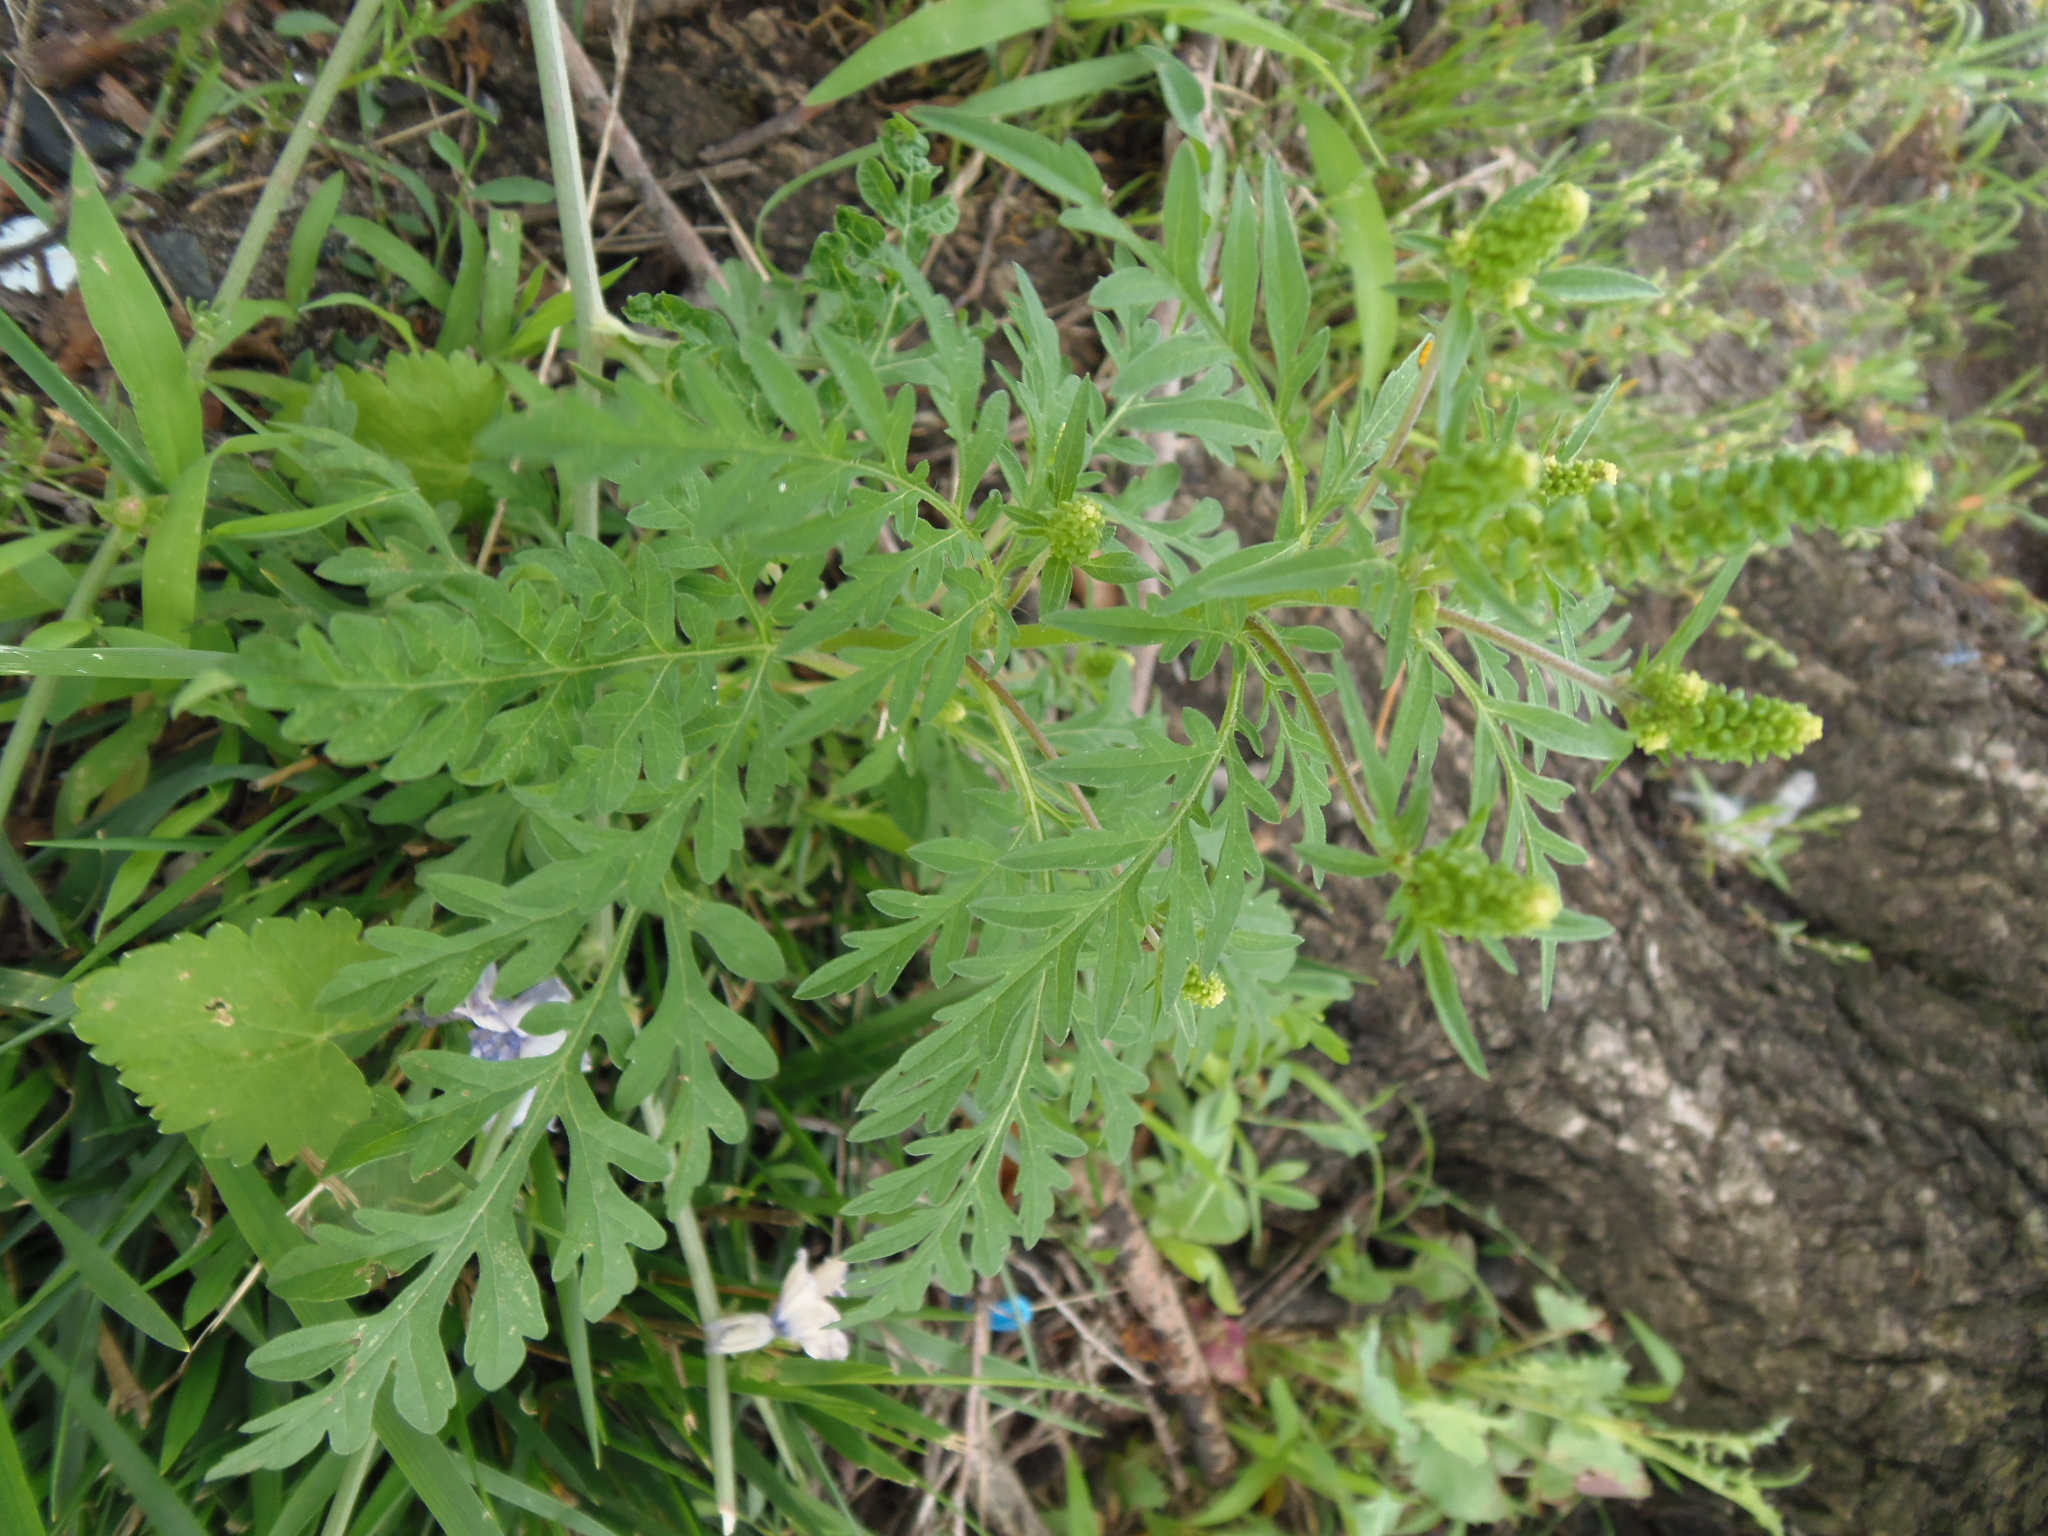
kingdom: Plantae
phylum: Tracheophyta
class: Magnoliopsida
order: Asterales
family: Asteraceae
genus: Ambrosia
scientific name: Ambrosia artemisiifolia
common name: Annual ragweed
